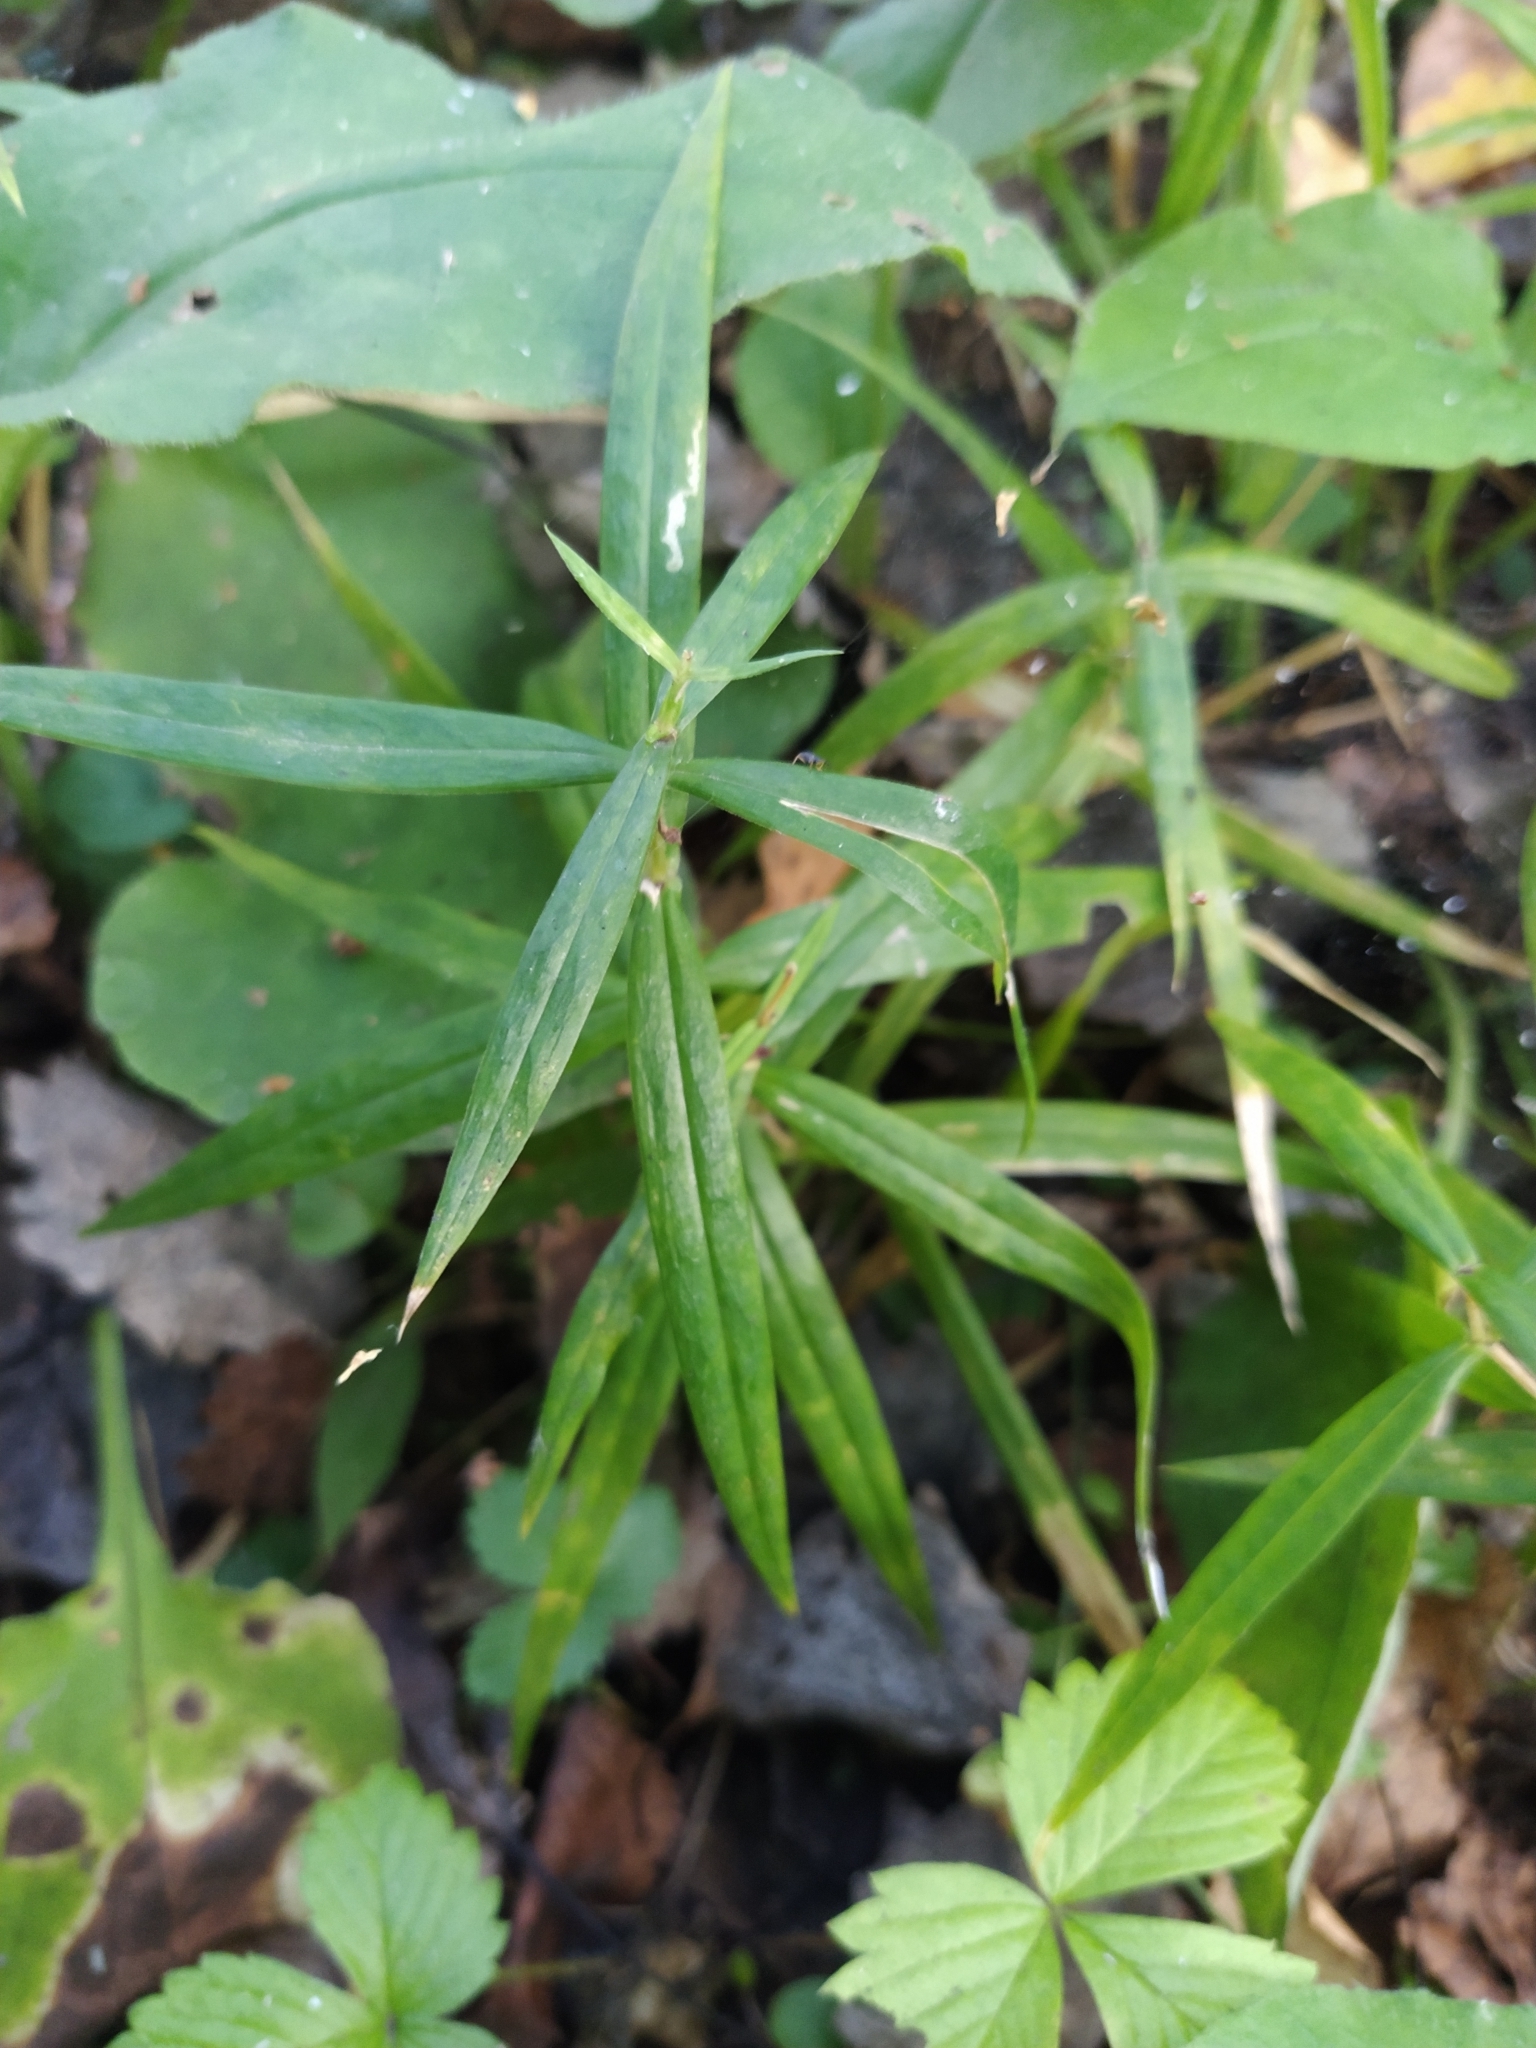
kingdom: Plantae
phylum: Tracheophyta
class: Magnoliopsida
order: Caryophyllales
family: Caryophyllaceae
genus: Rabelera
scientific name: Rabelera holostea
